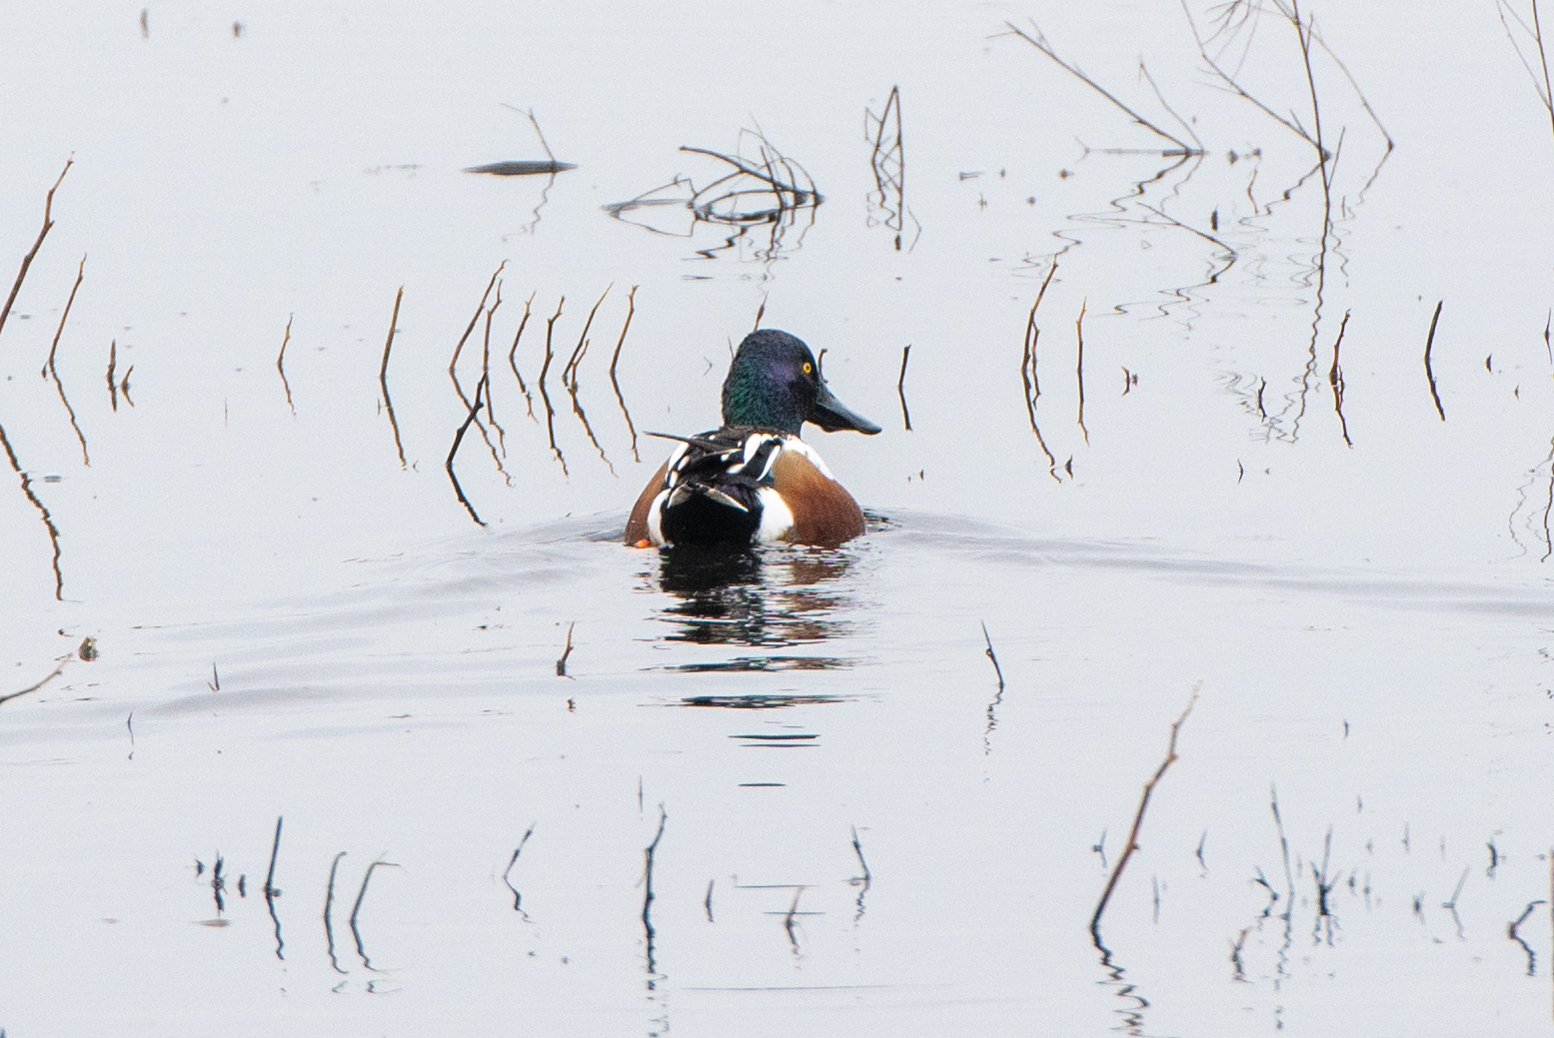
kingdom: Animalia
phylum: Chordata
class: Aves
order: Anseriformes
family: Anatidae
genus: Spatula
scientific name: Spatula clypeata
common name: Northern shoveler
